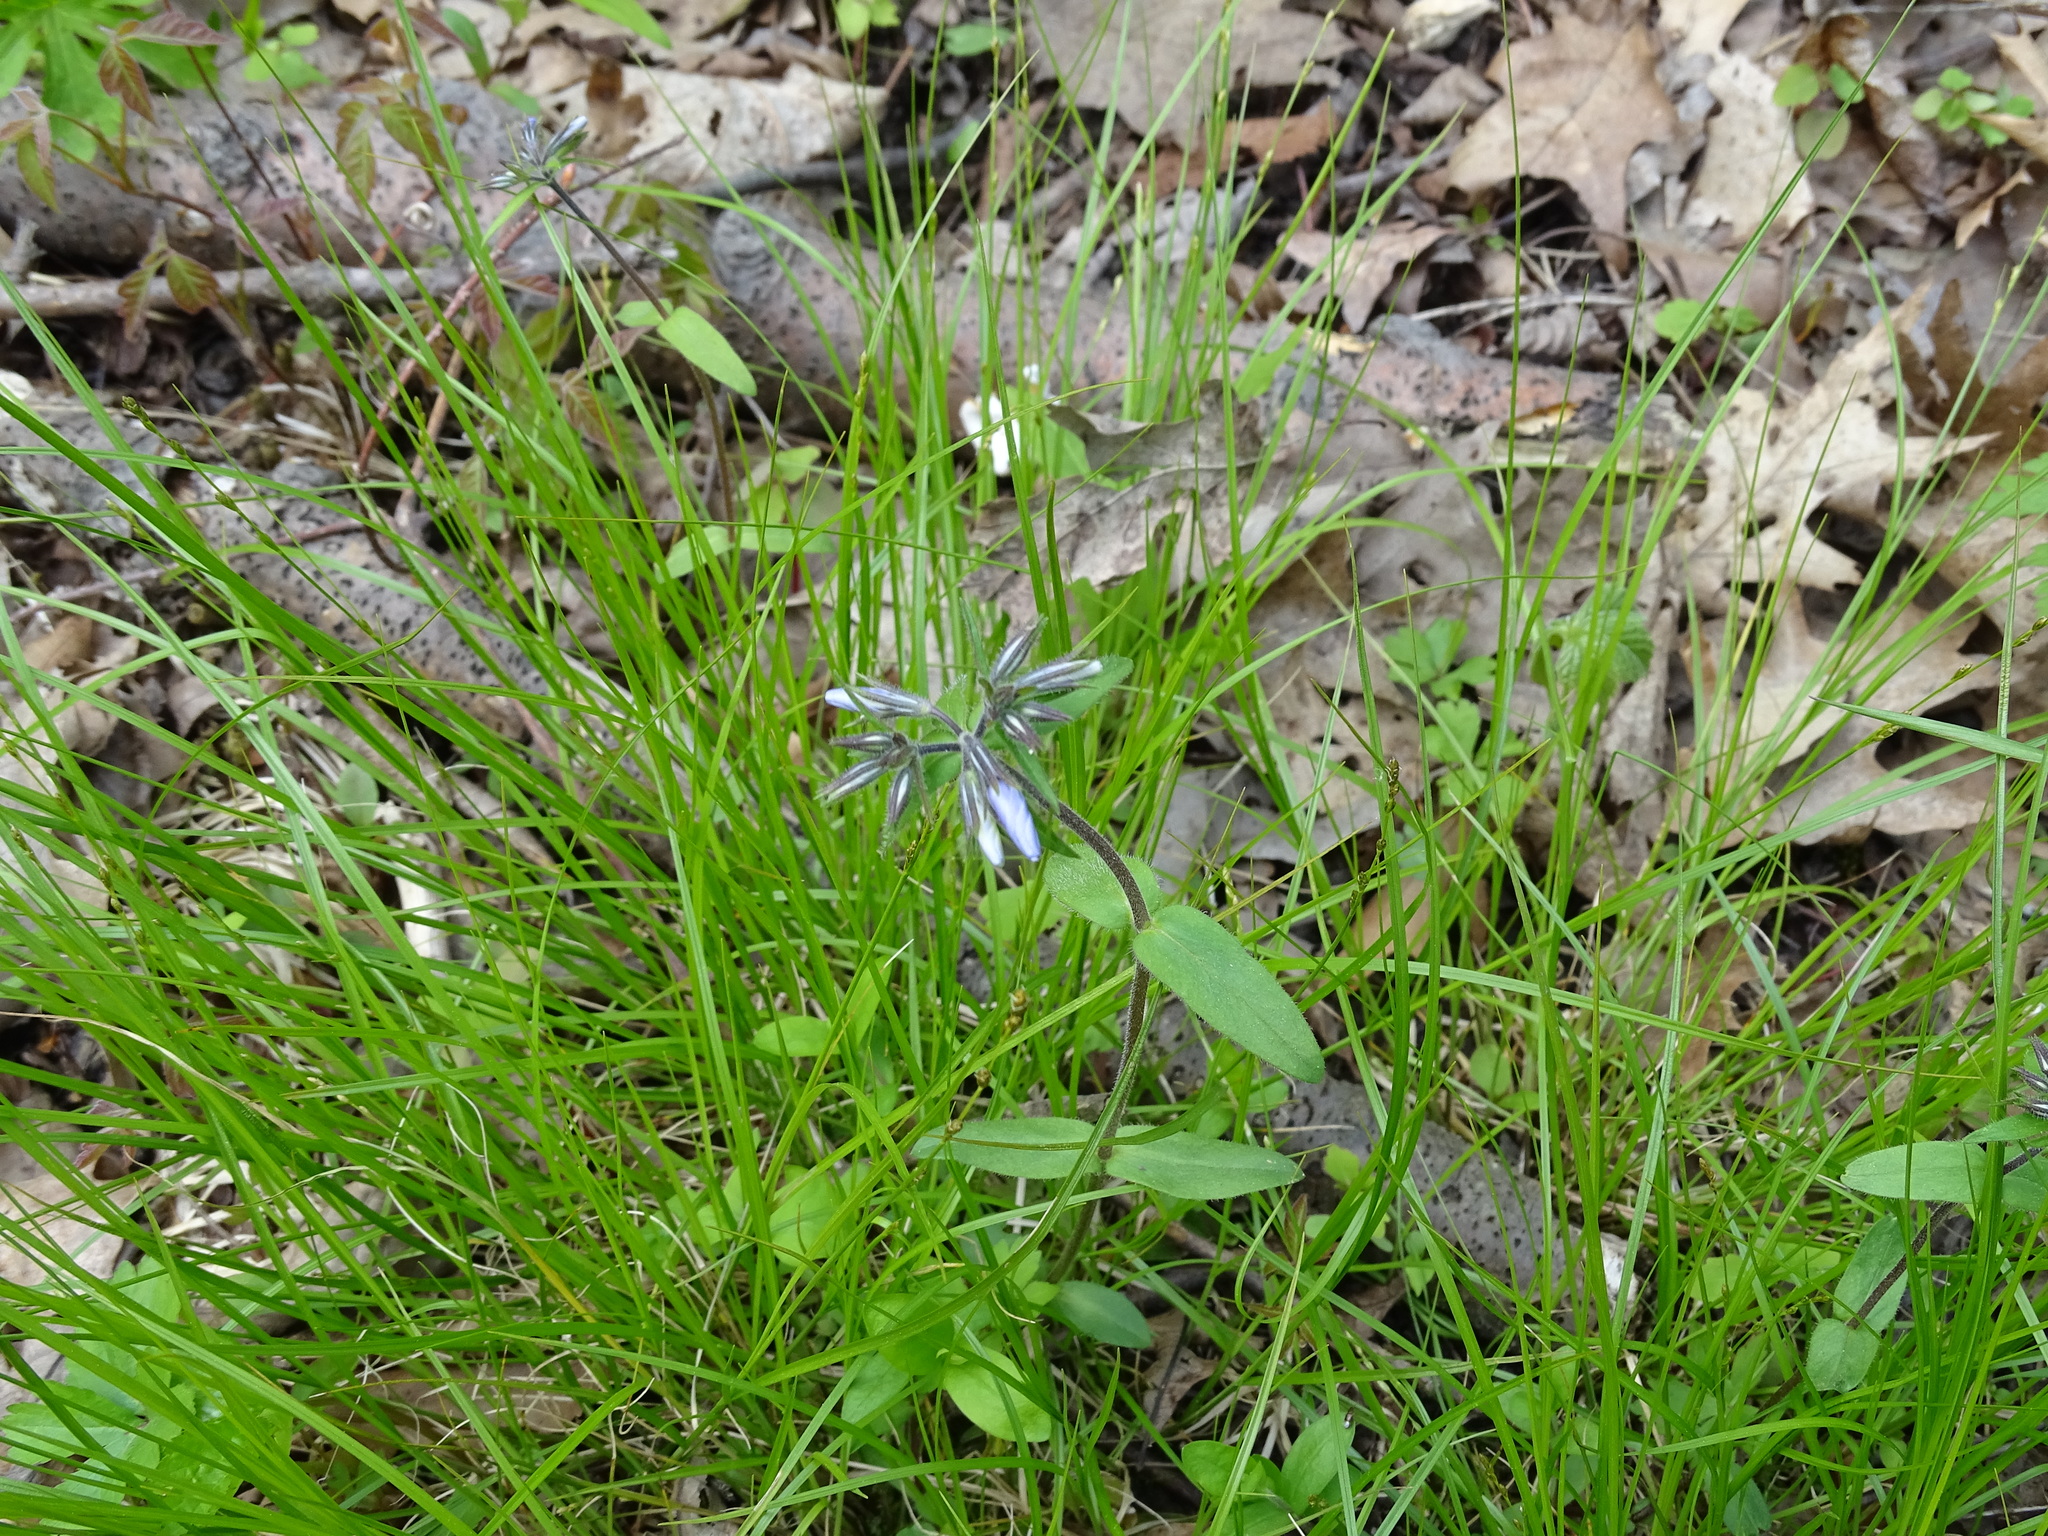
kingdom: Plantae
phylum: Tracheophyta
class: Magnoliopsida
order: Ericales
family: Polemoniaceae
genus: Phlox
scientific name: Phlox divaricata
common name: Blue phlox
